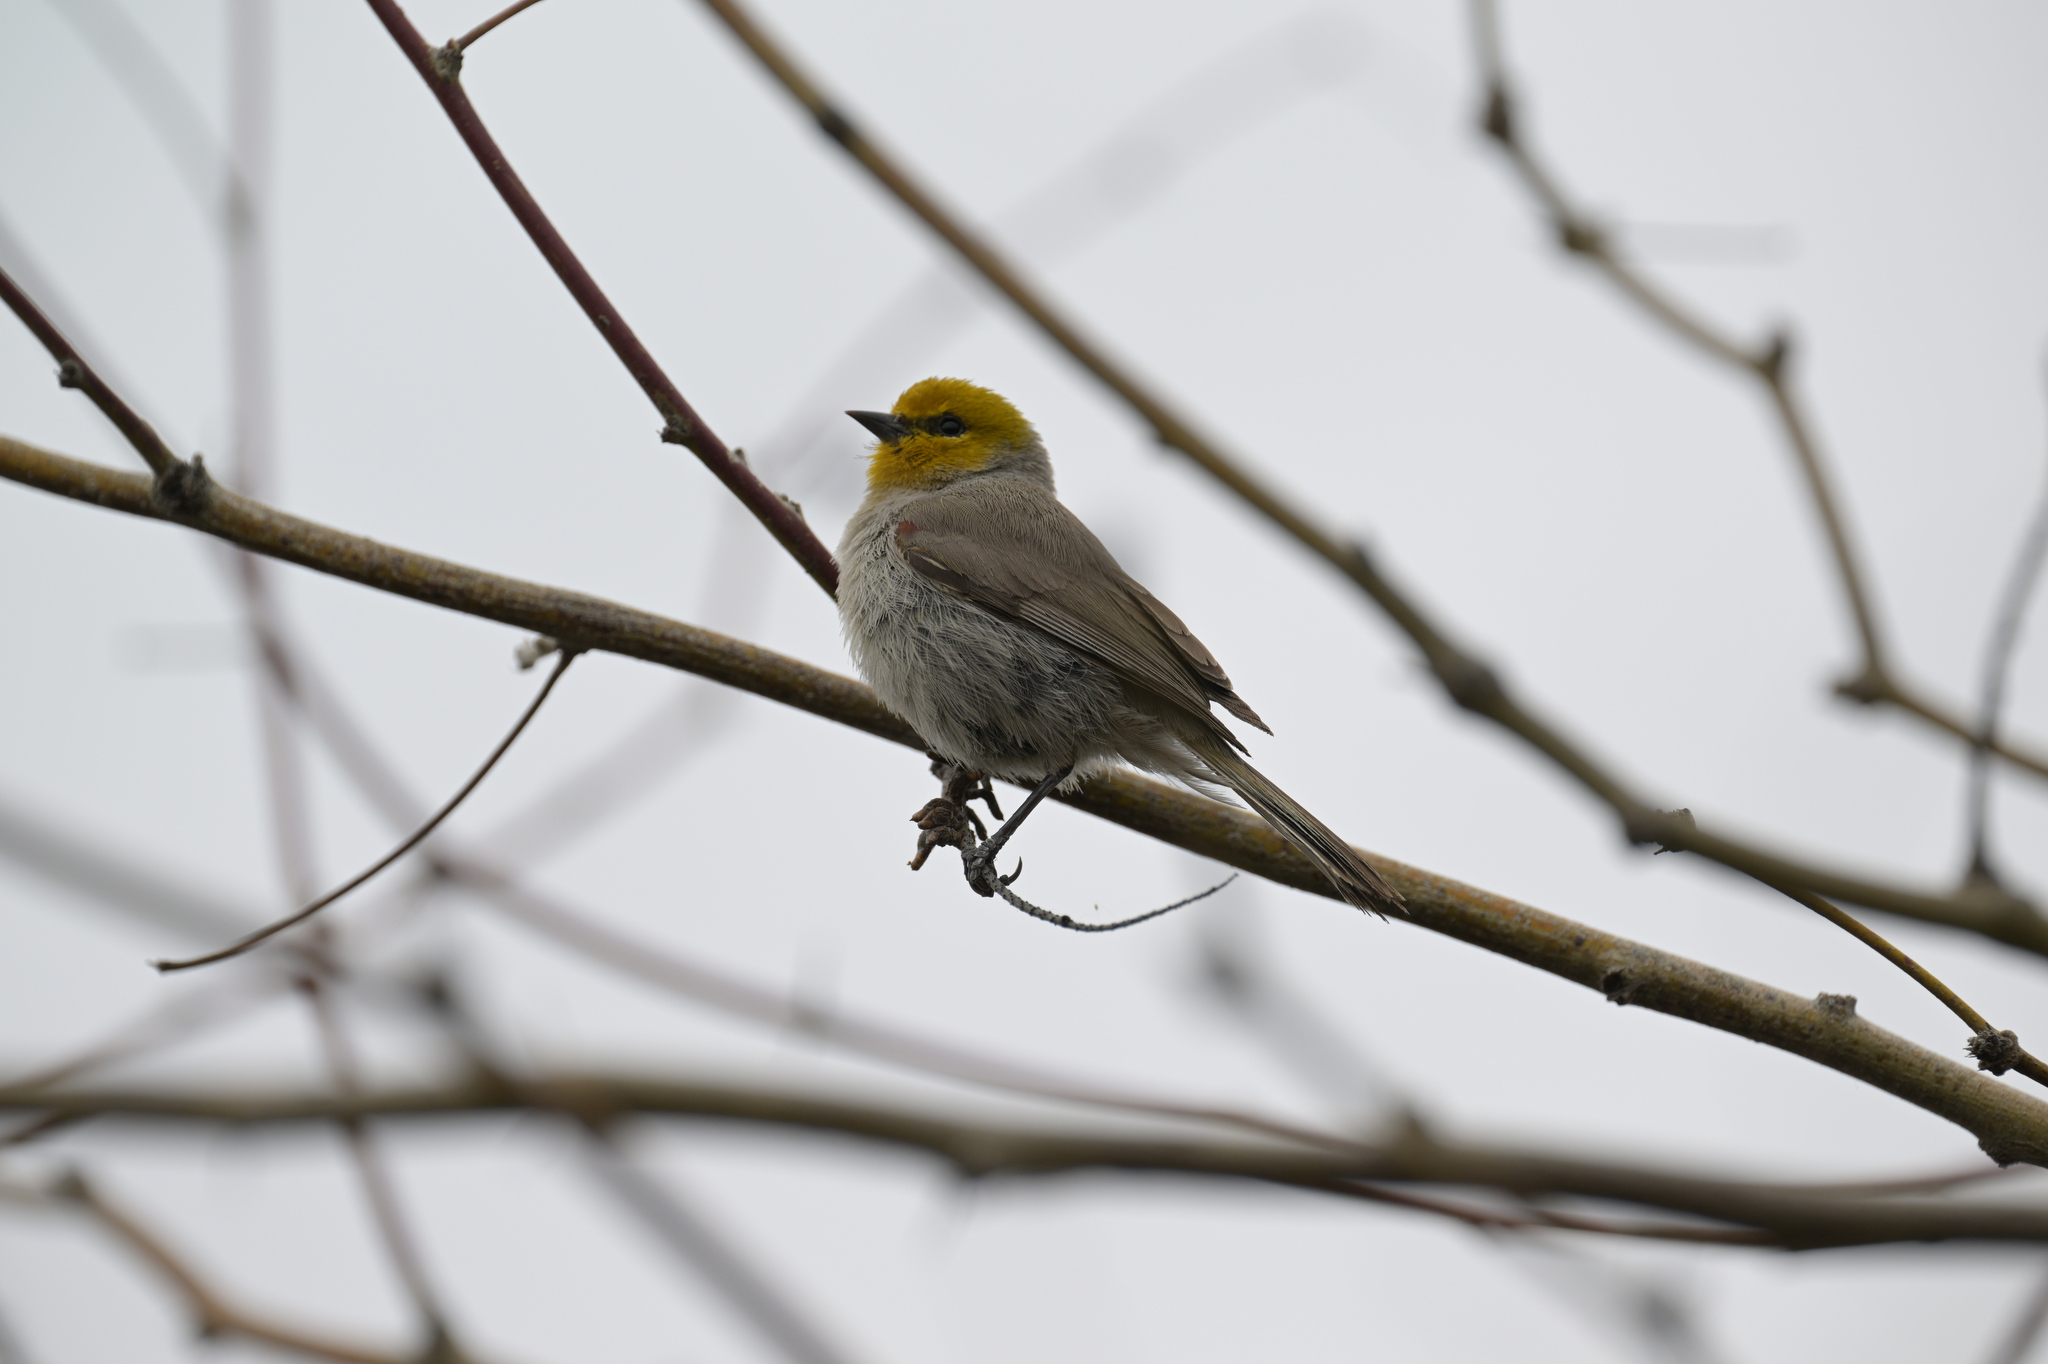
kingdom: Animalia
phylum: Chordata
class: Aves
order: Passeriformes
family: Remizidae
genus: Auriparus
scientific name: Auriparus flaviceps
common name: Verdin
